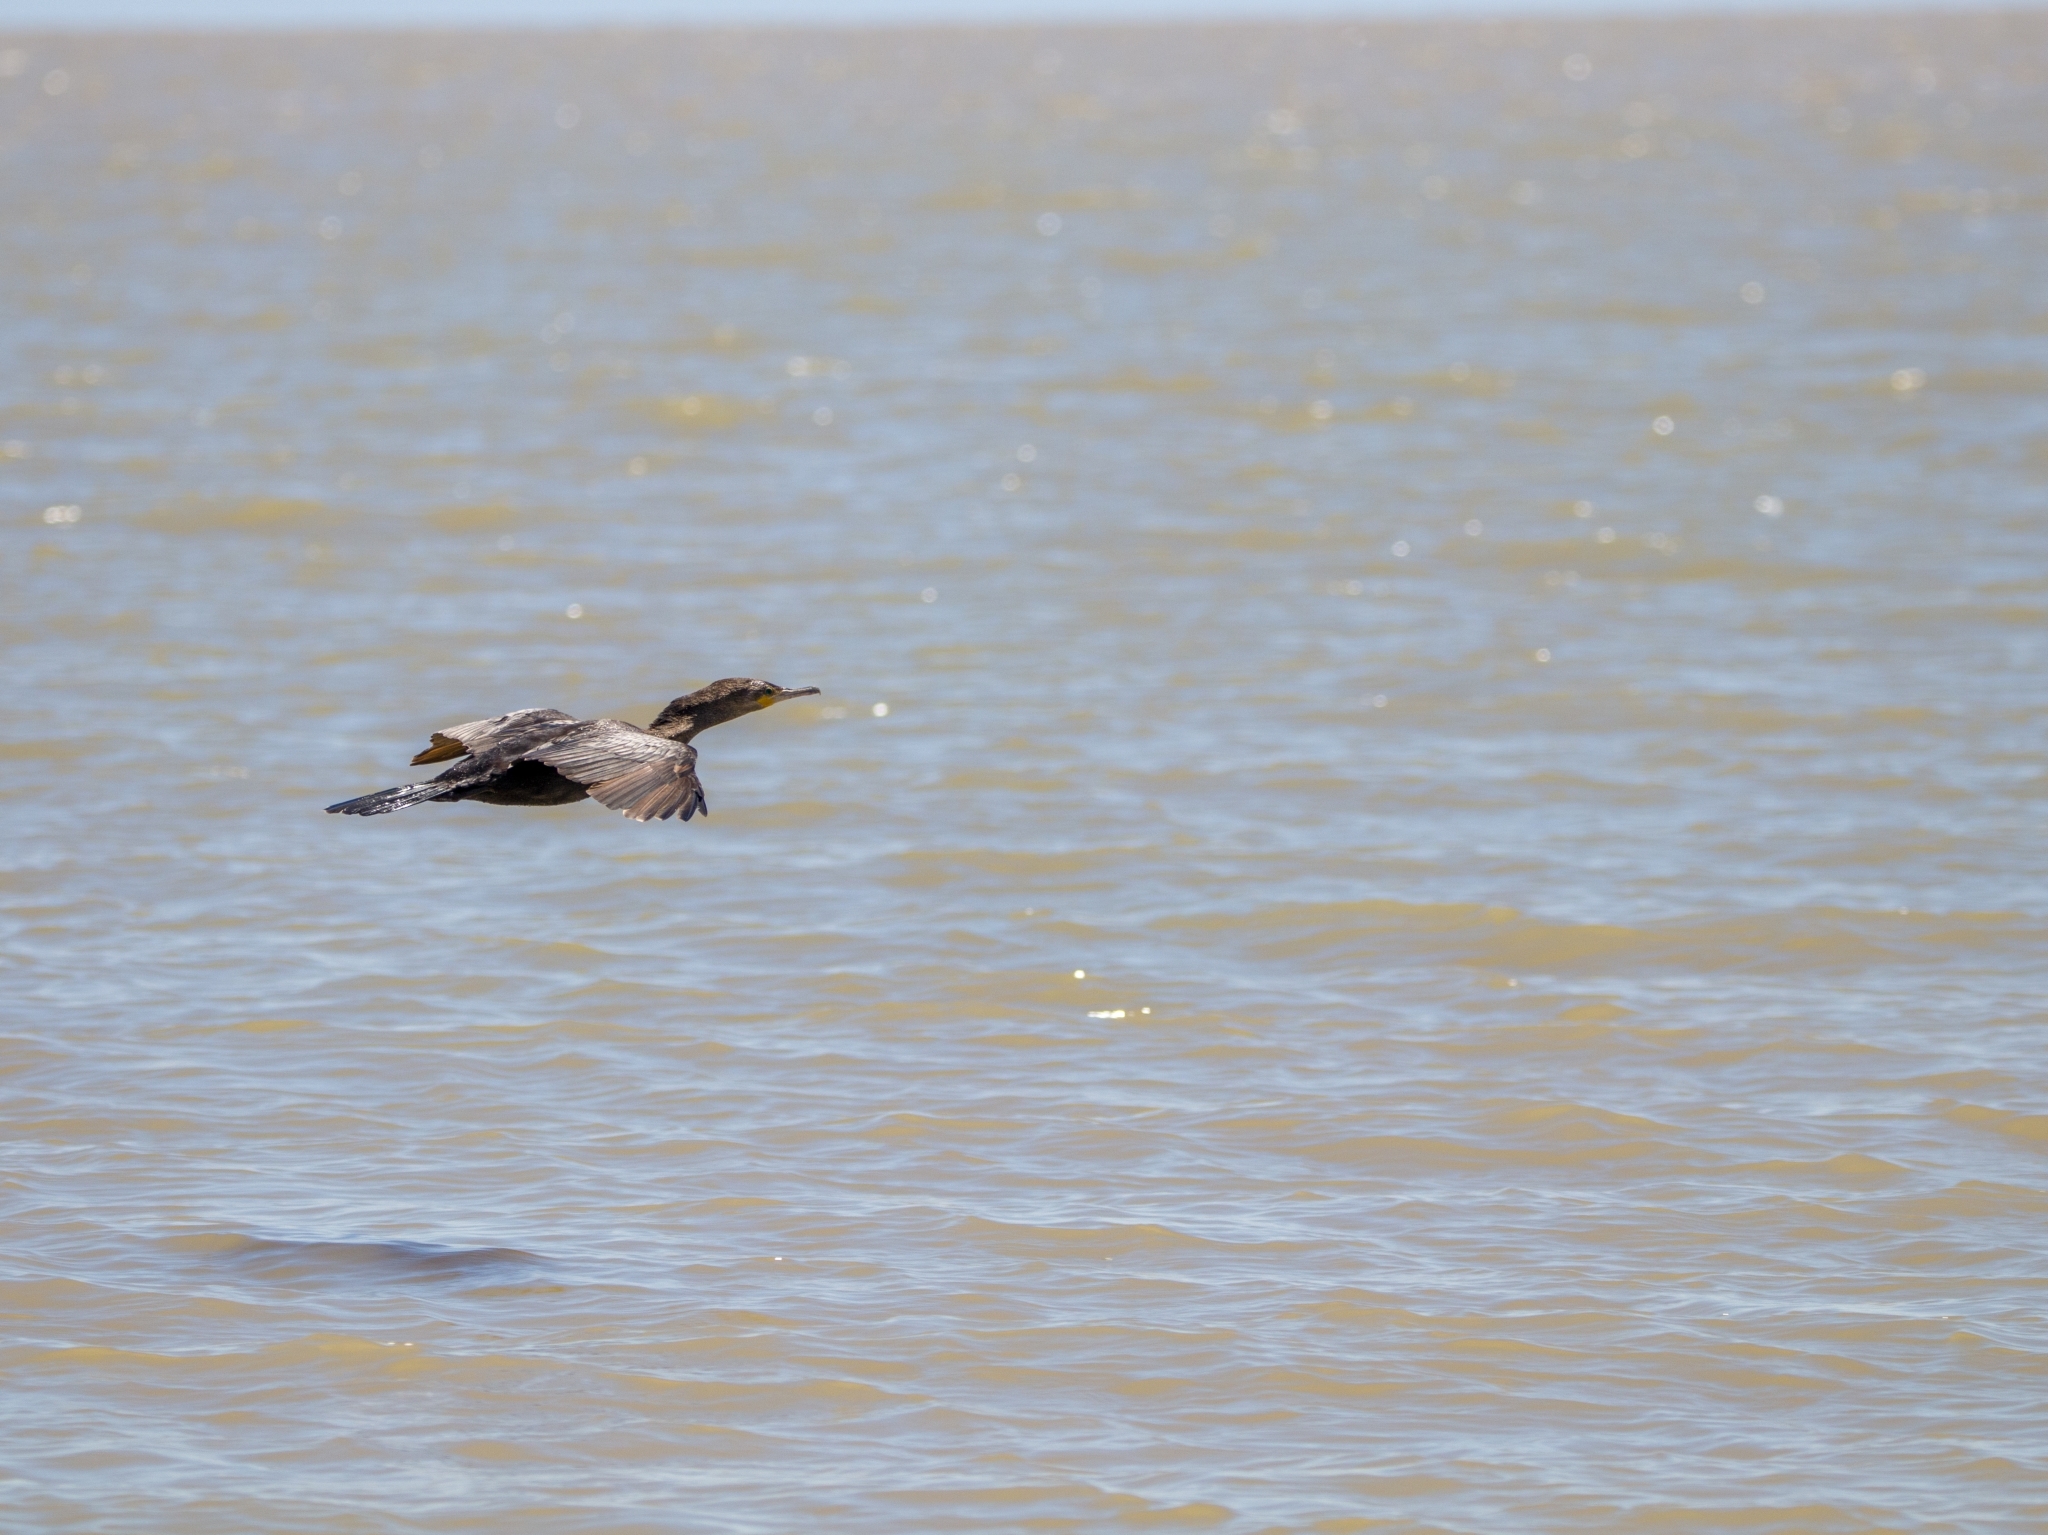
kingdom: Animalia
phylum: Chordata
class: Aves
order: Suliformes
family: Phalacrocoracidae
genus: Phalacrocorax
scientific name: Phalacrocorax brasilianus
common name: Neotropic cormorant
